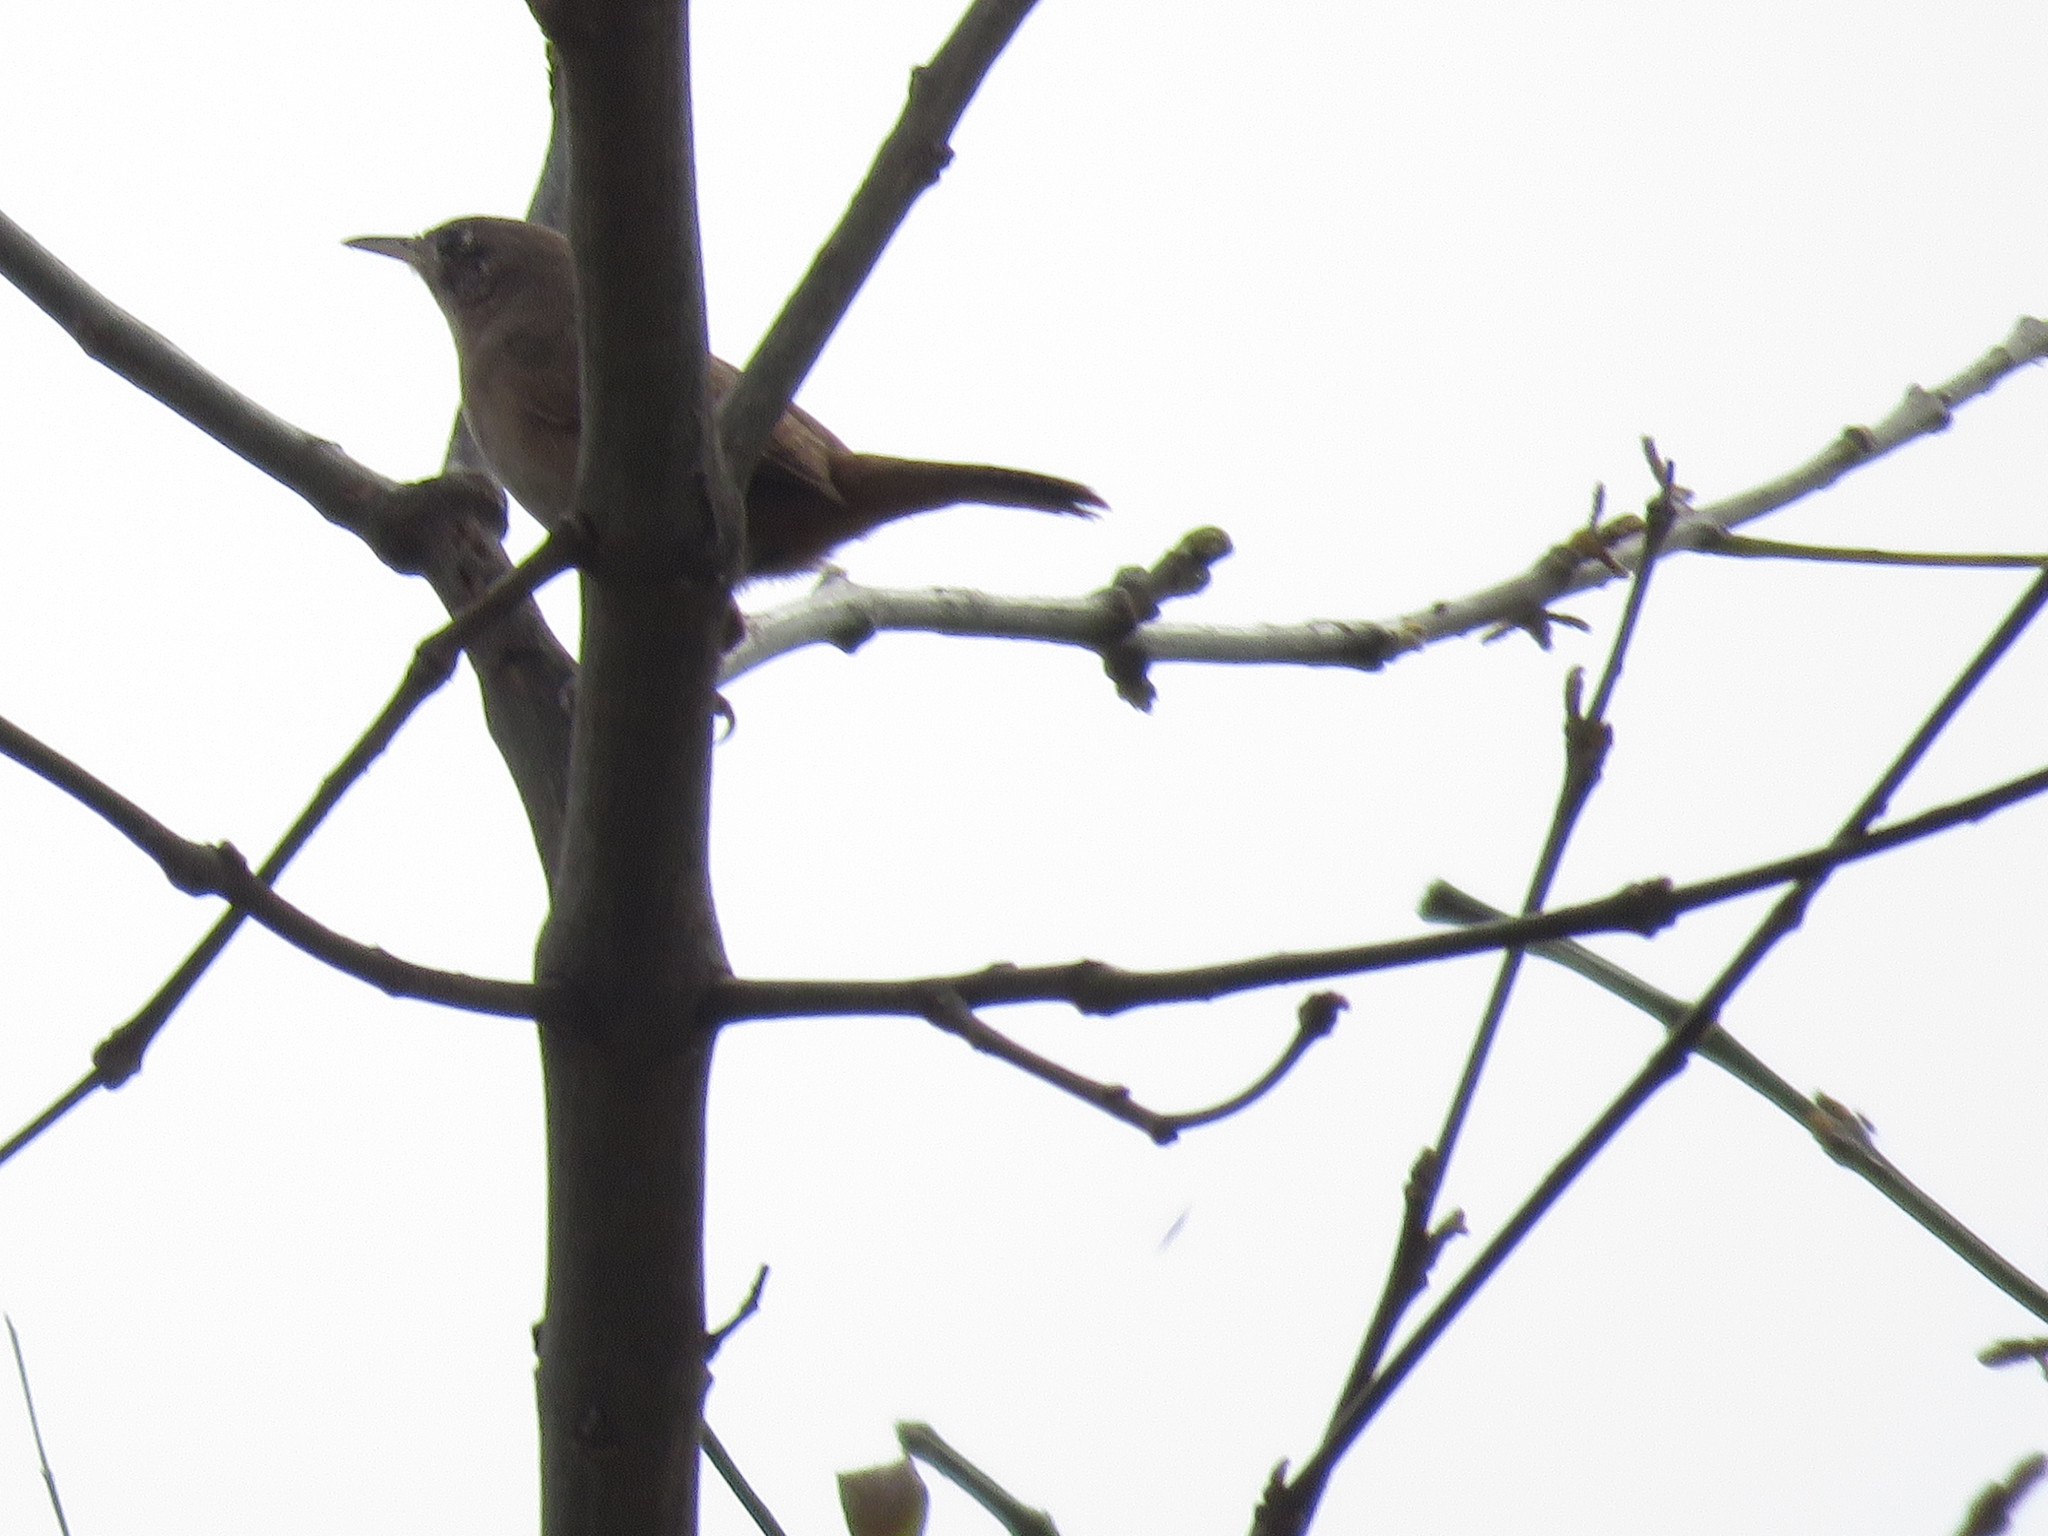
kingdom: Animalia
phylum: Chordata
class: Aves
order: Passeriformes
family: Troglodytidae
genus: Troglodytes
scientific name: Troglodytes aedon
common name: House wren
